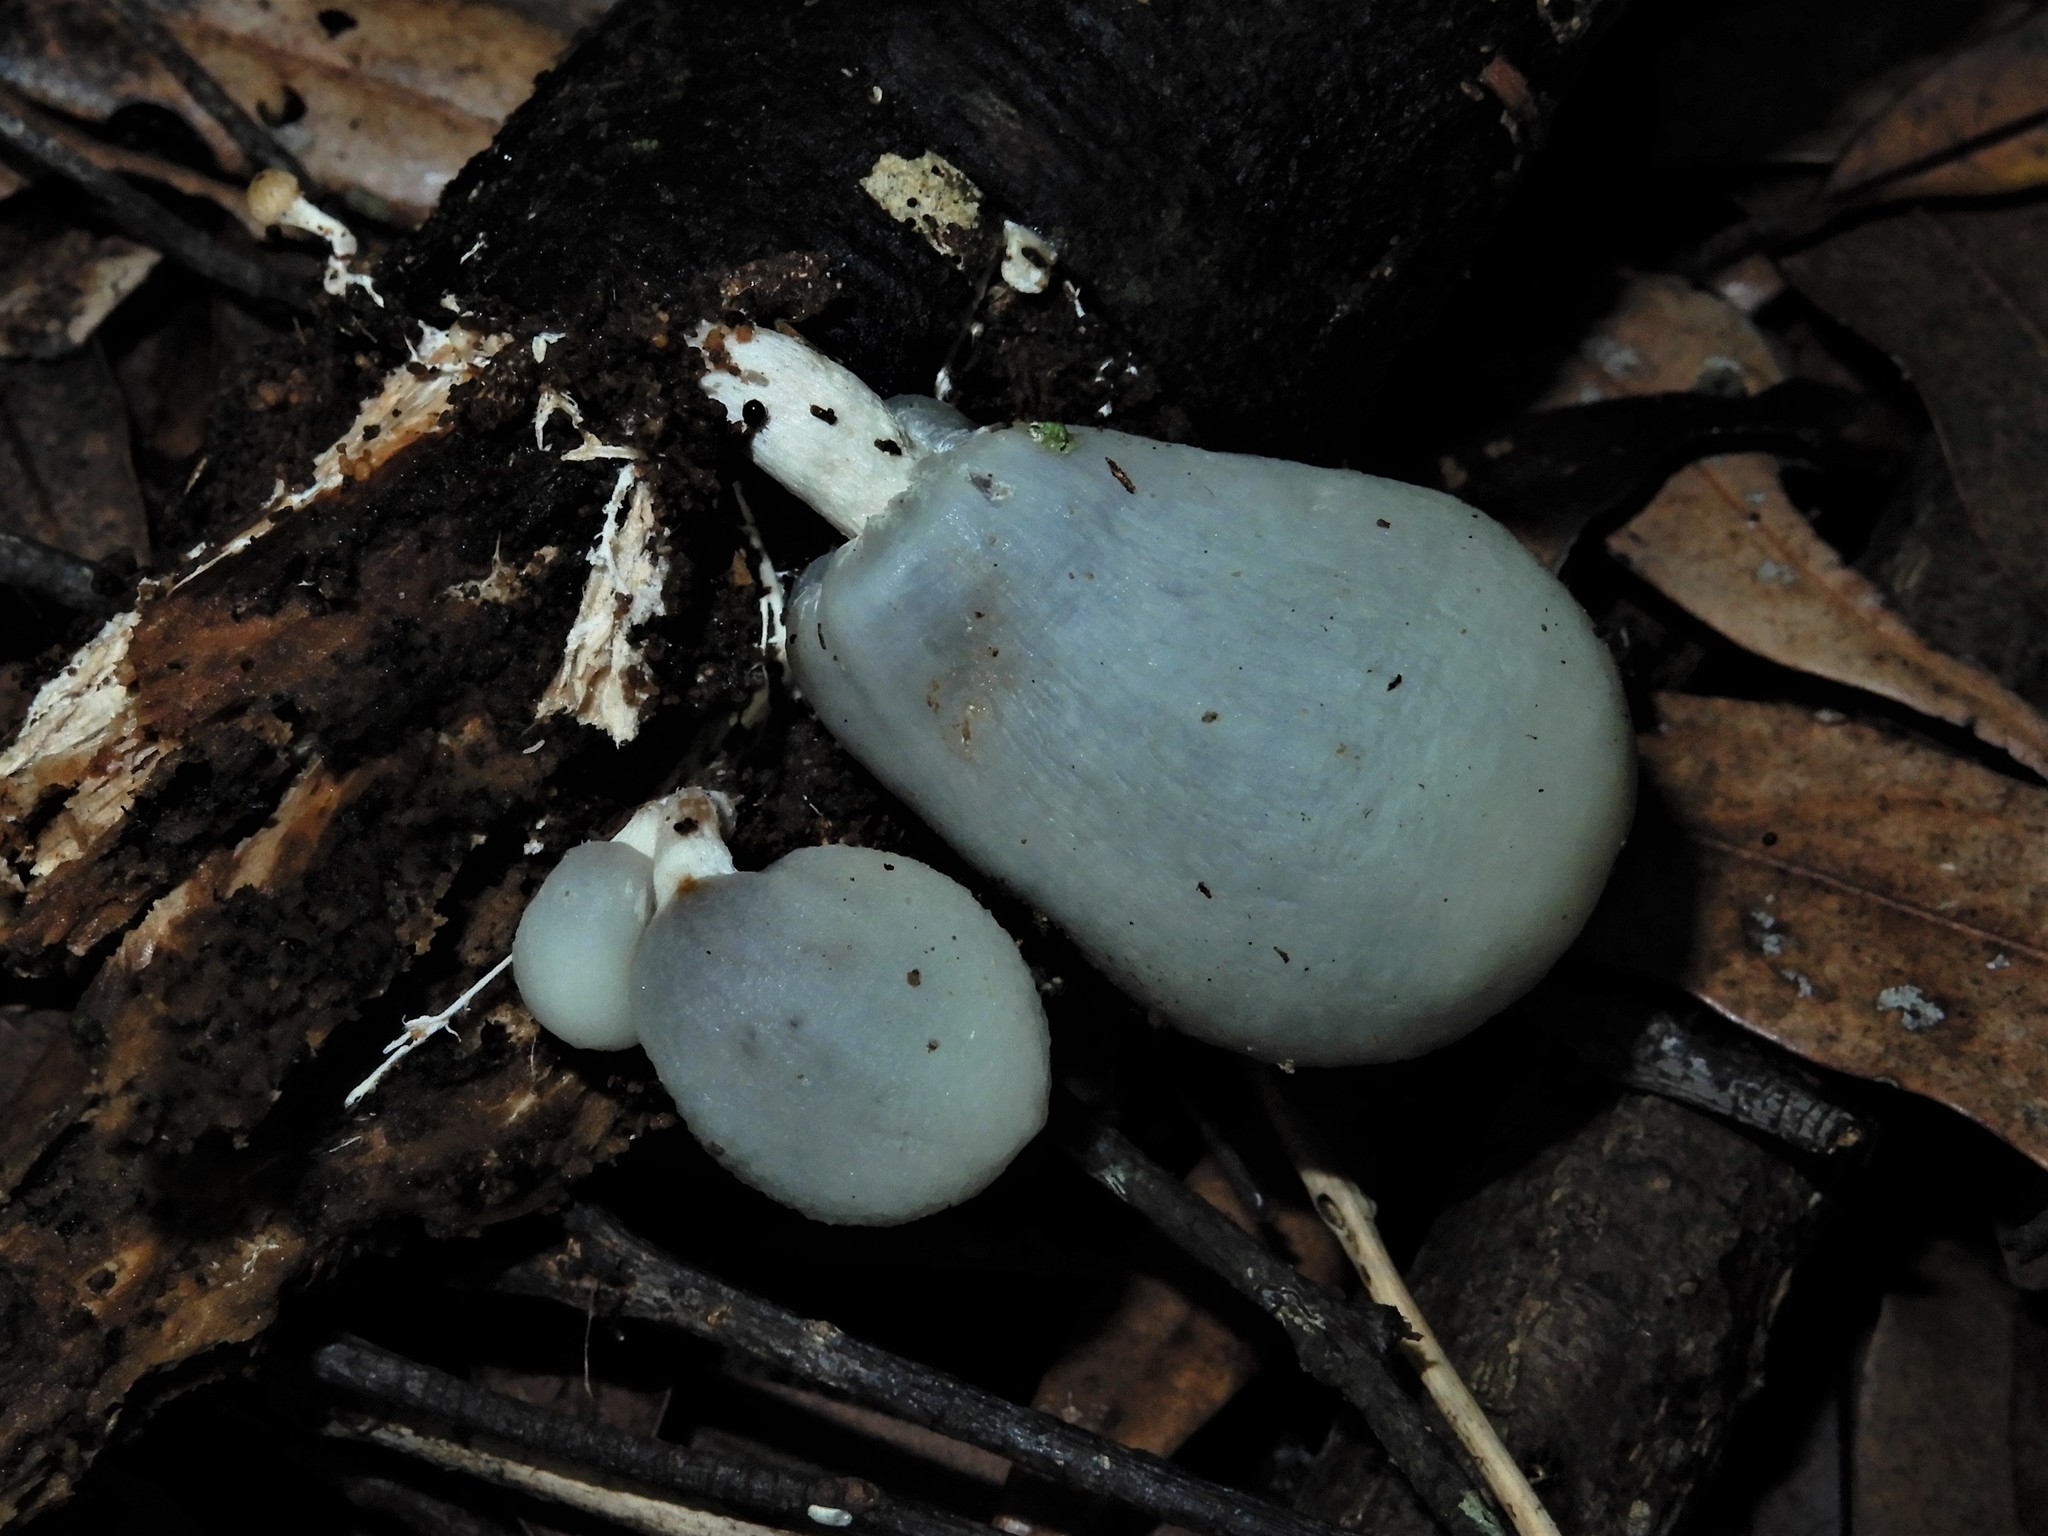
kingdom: Fungi
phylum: Basidiomycota
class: Agaricomycetes
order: Agaricales
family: Hymenogastraceae
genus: Psilocybe
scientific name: Psilocybe weraroa
